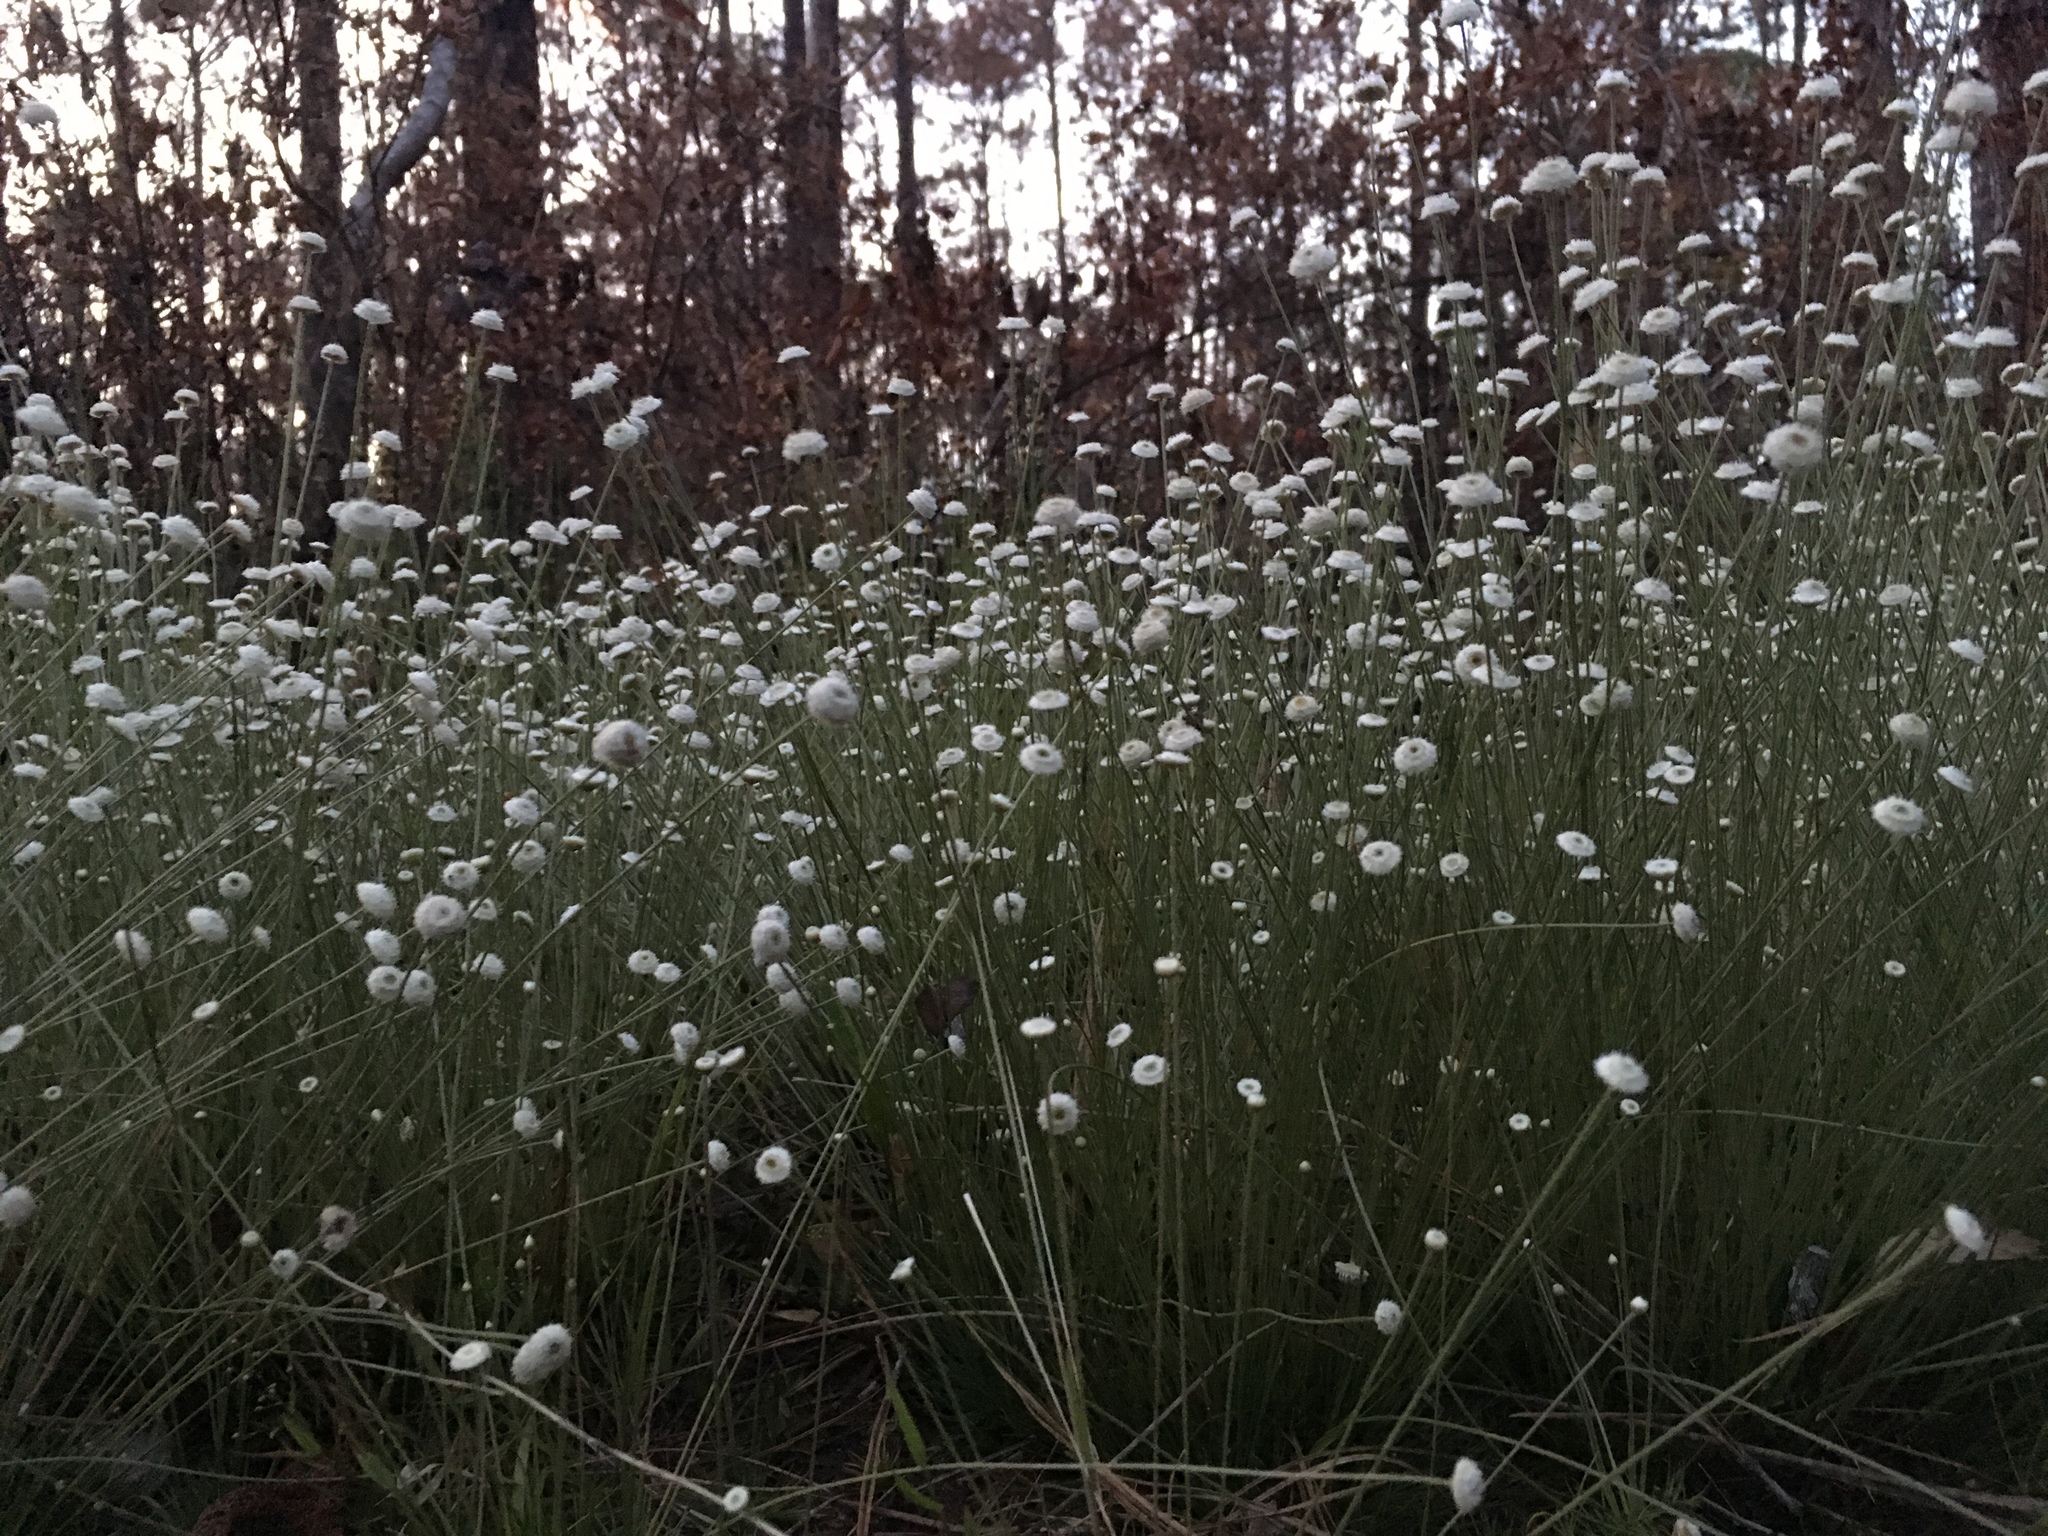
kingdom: Plantae
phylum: Tracheophyta
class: Liliopsida
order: Poales
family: Eriocaulaceae
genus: Syngonanthus
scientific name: Syngonanthus flavidulus
